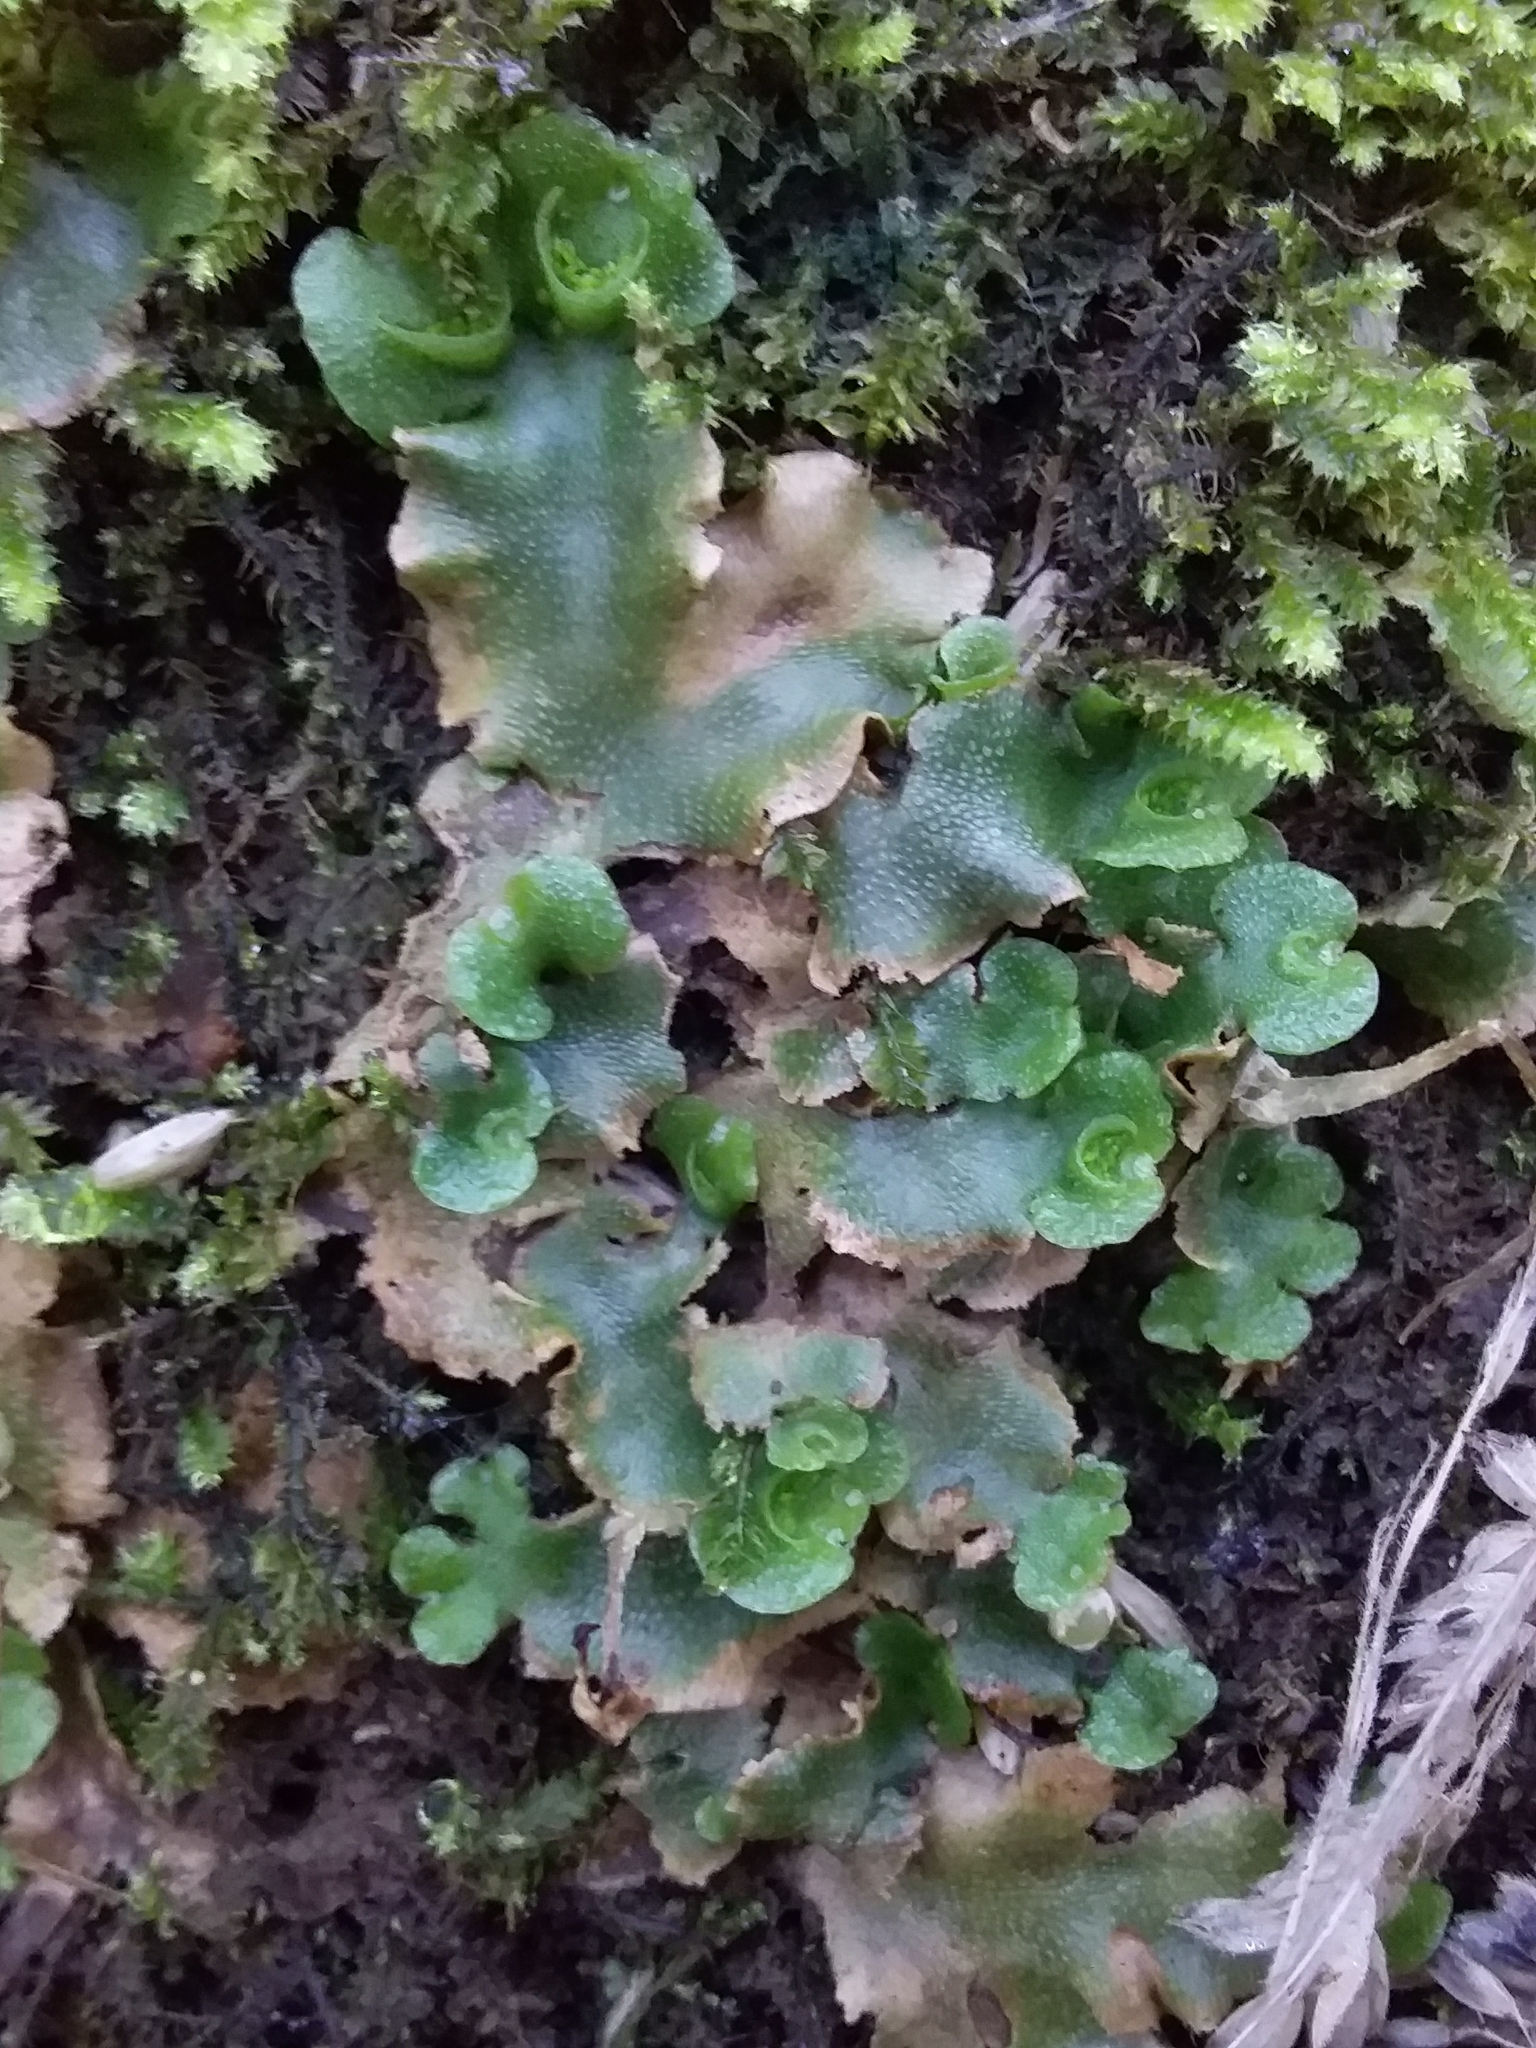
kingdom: Plantae
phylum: Marchantiophyta
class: Marchantiopsida
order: Lunulariales
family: Lunulariaceae
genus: Lunularia
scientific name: Lunularia cruciata
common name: Crescent-cup liverwort
